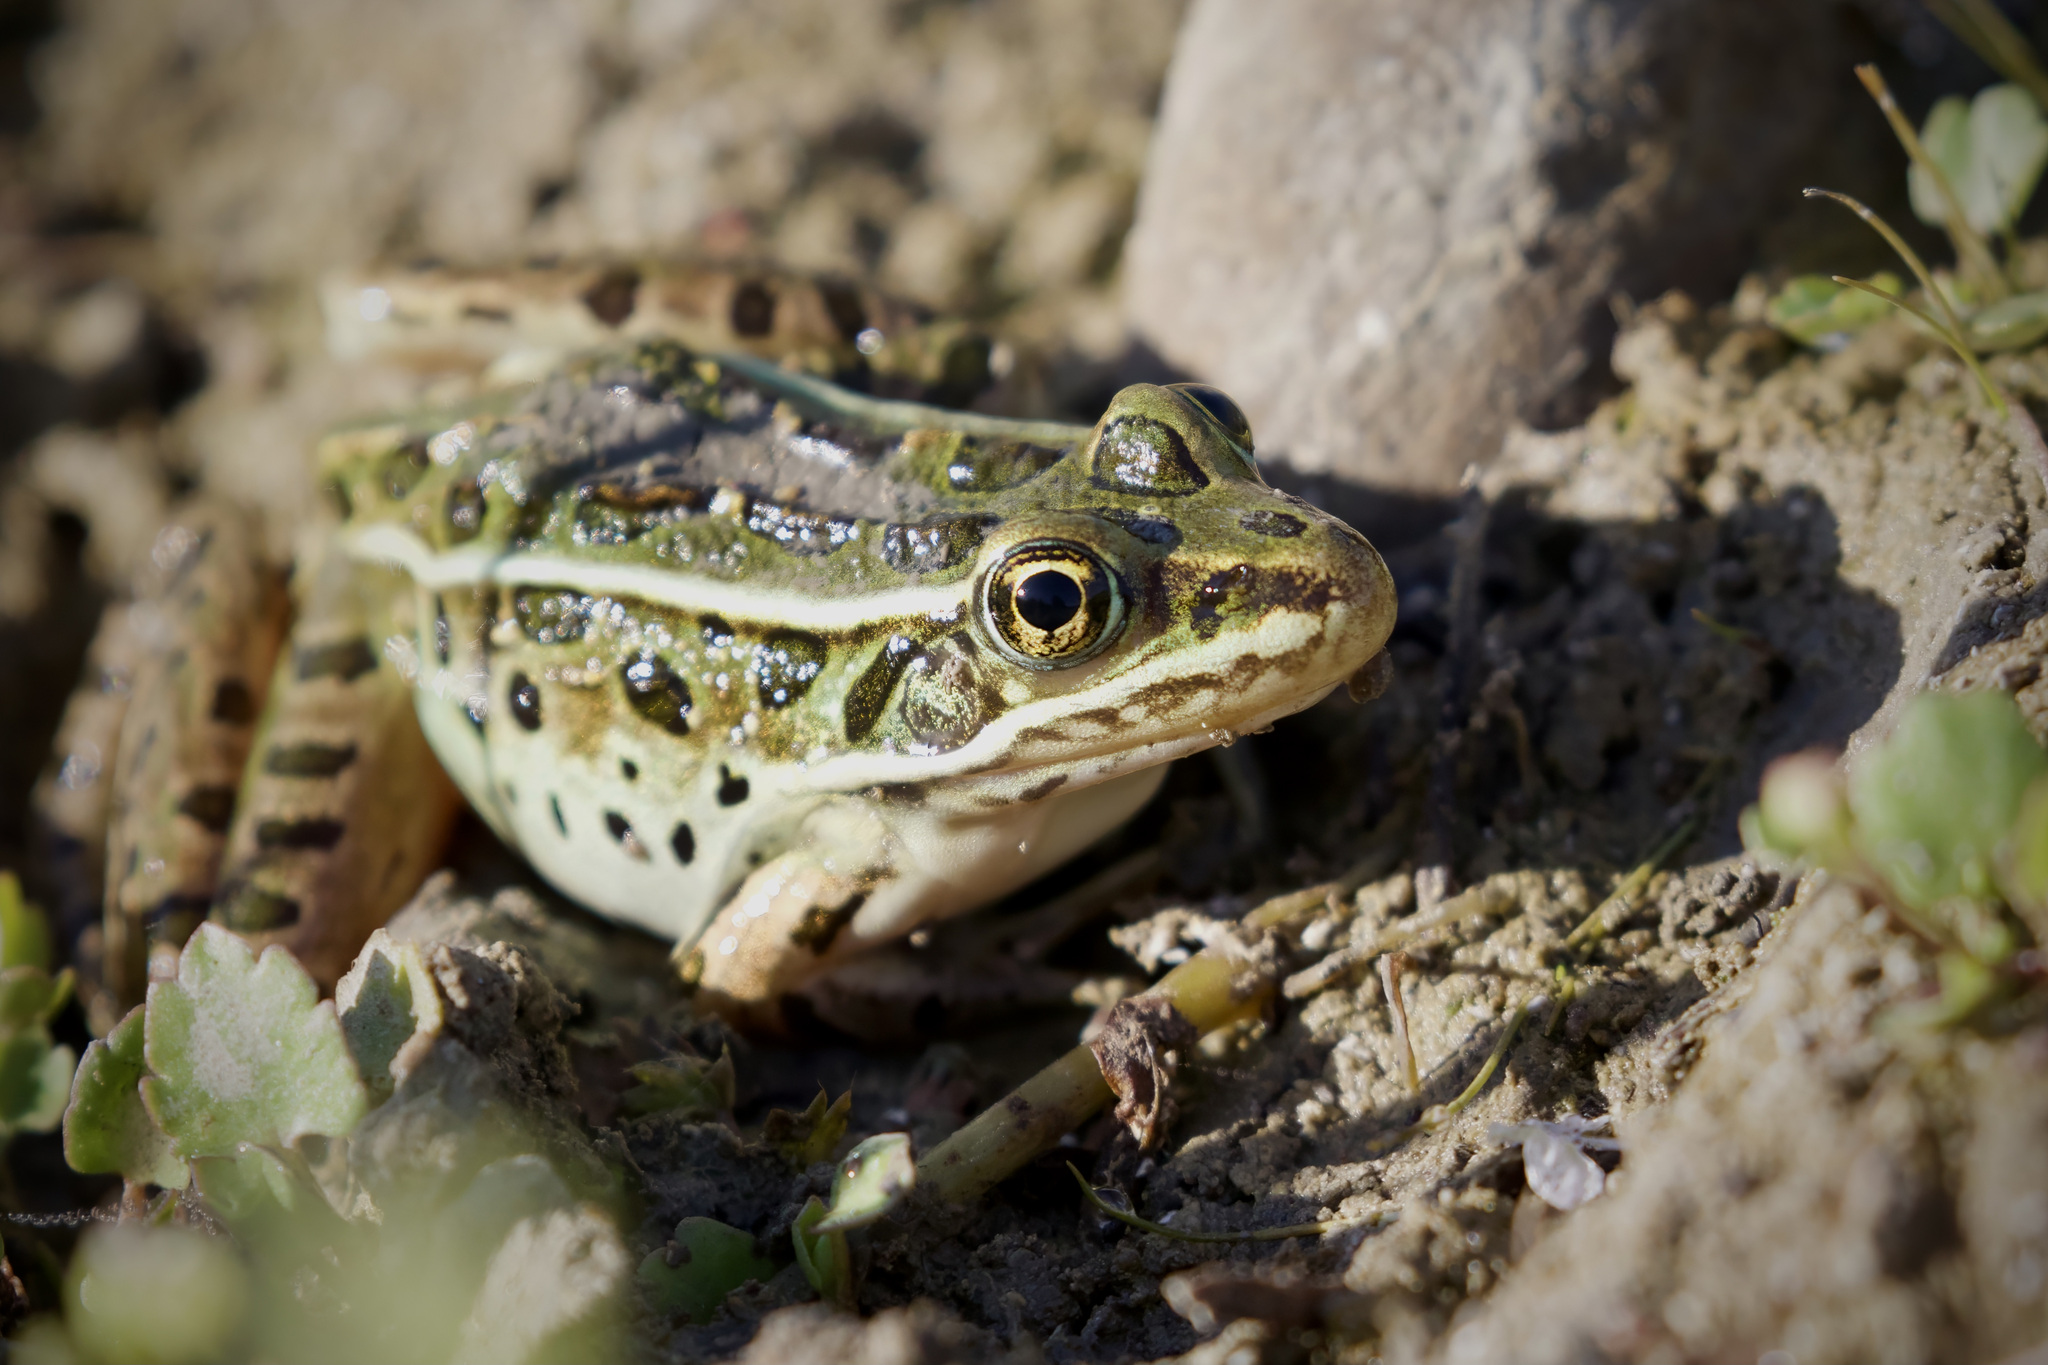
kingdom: Animalia
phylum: Chordata
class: Amphibia
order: Anura
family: Ranidae
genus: Lithobates
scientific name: Lithobates pipiens
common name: Northern leopard frog
